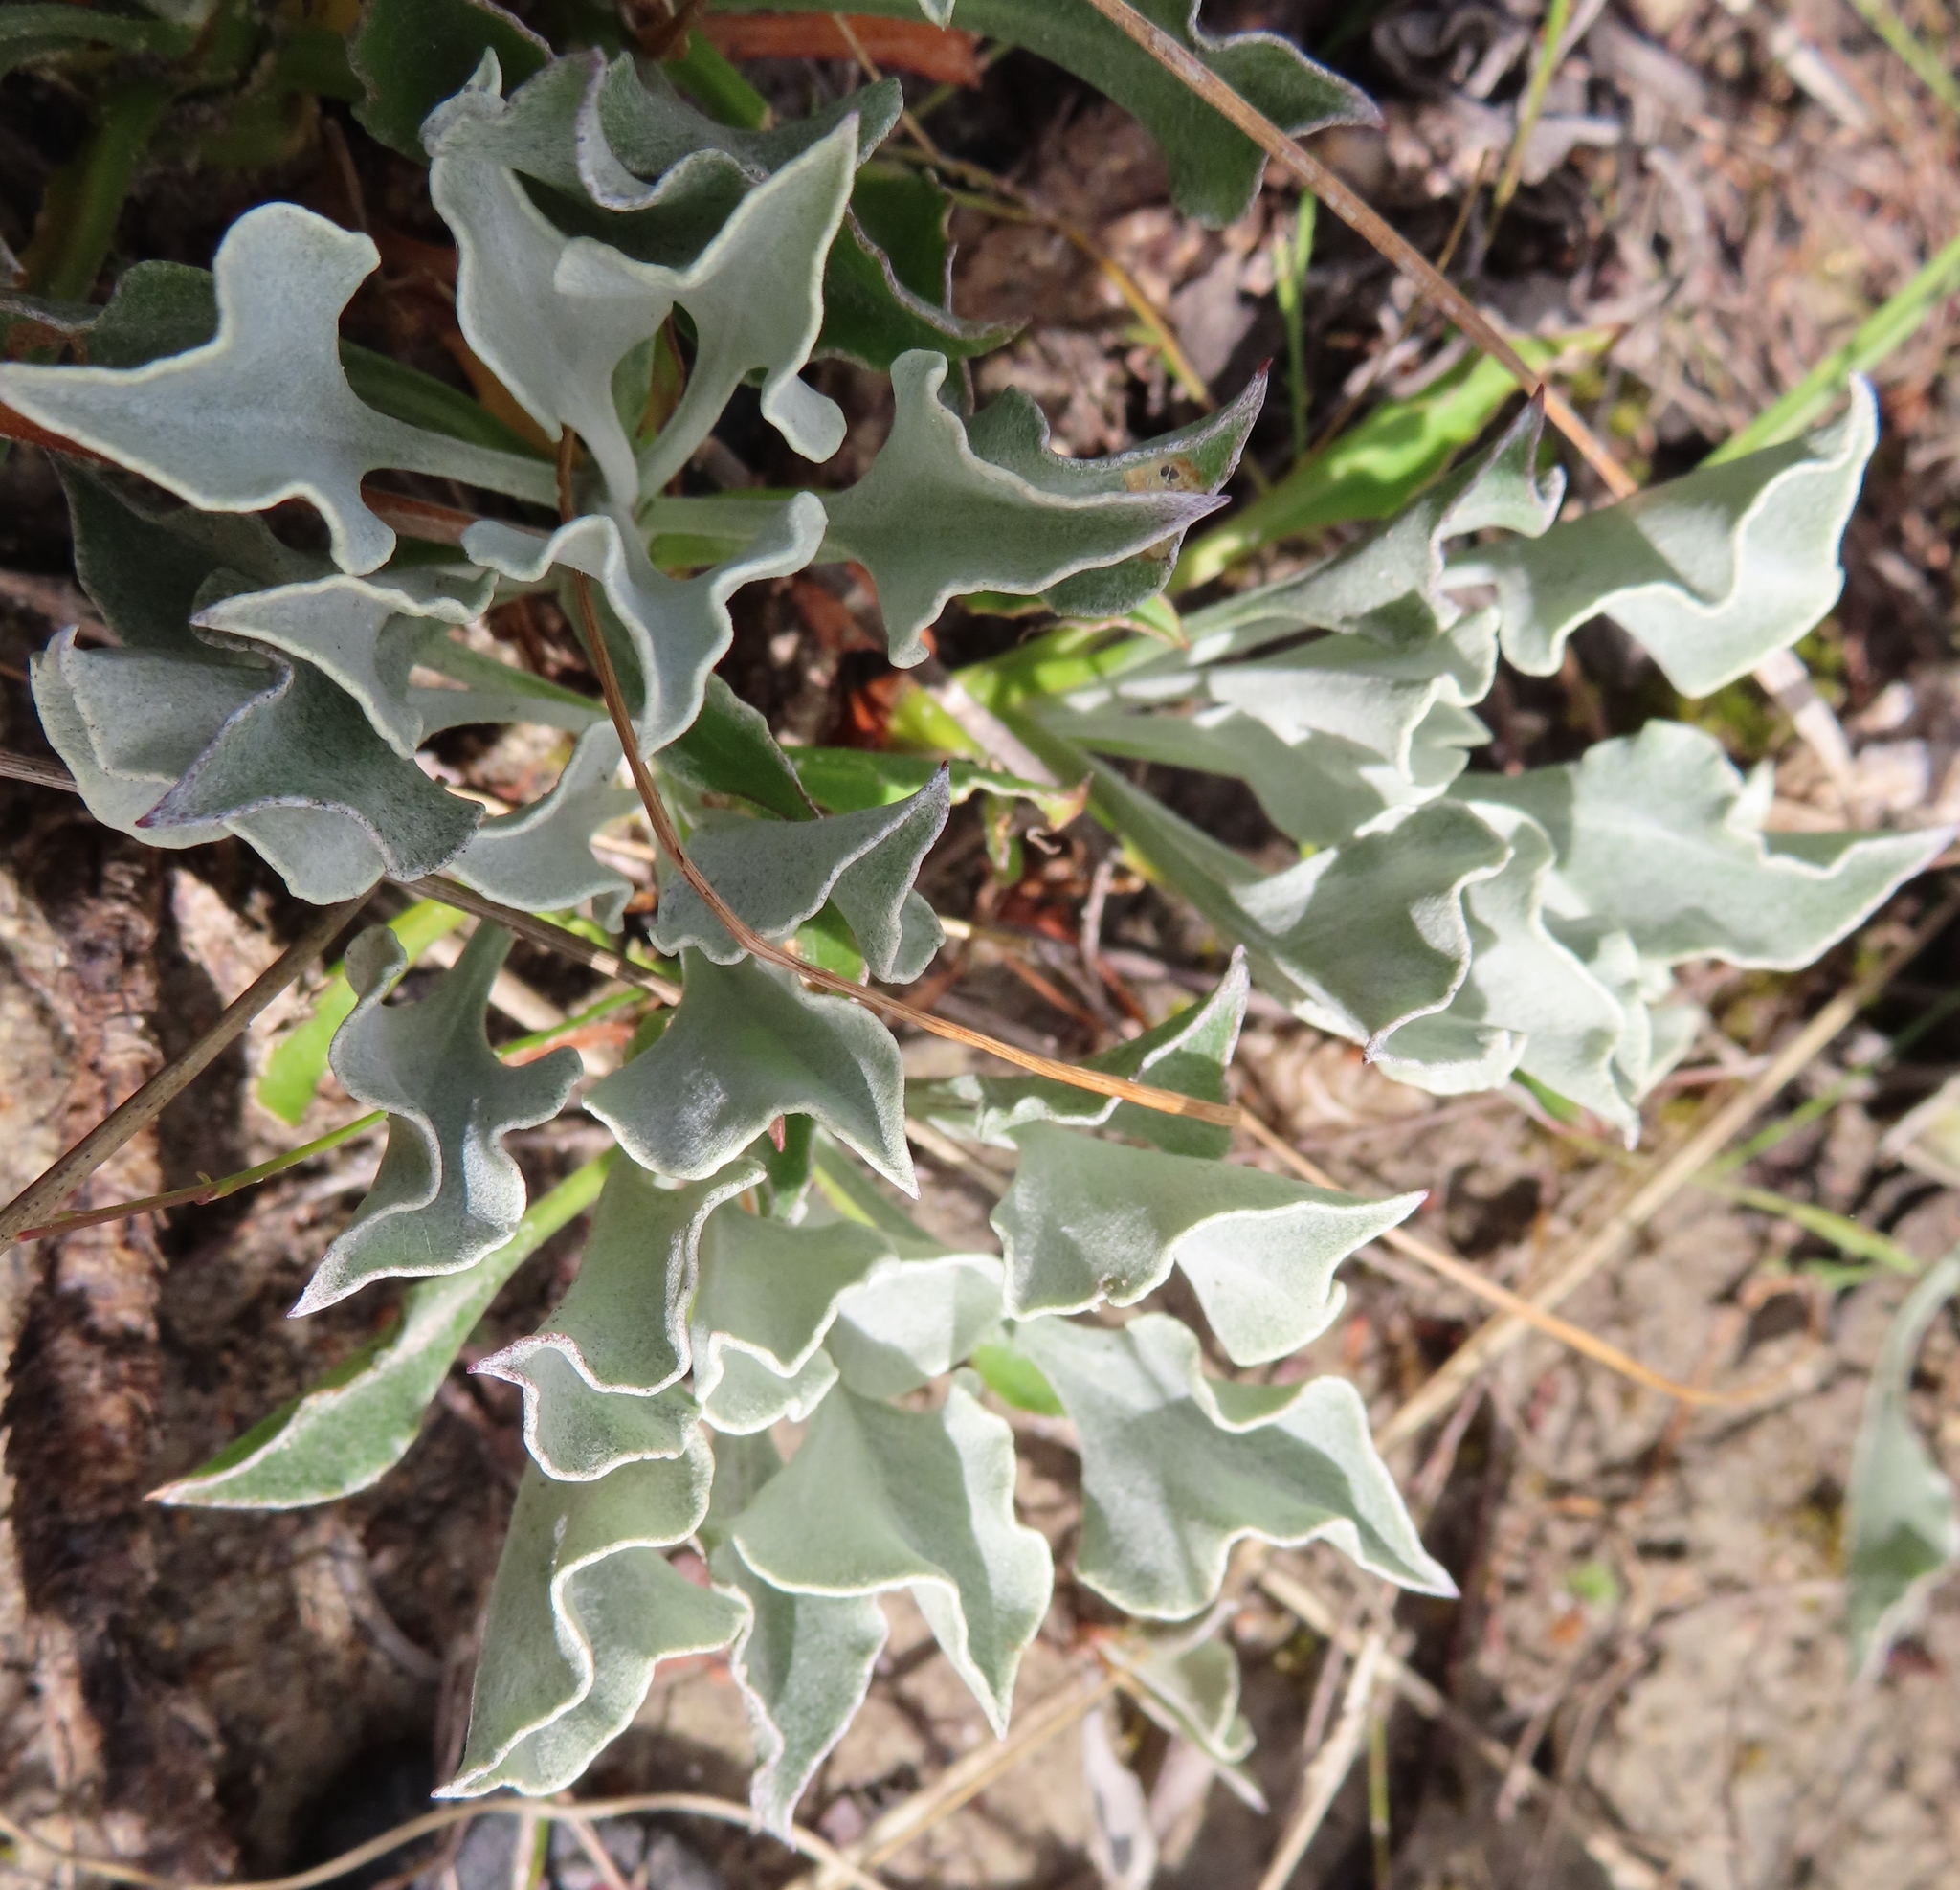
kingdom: Plantae
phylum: Tracheophyta
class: Magnoliopsida
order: Asterales
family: Asteraceae
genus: Osteospermum
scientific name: Osteospermum tomentosum
